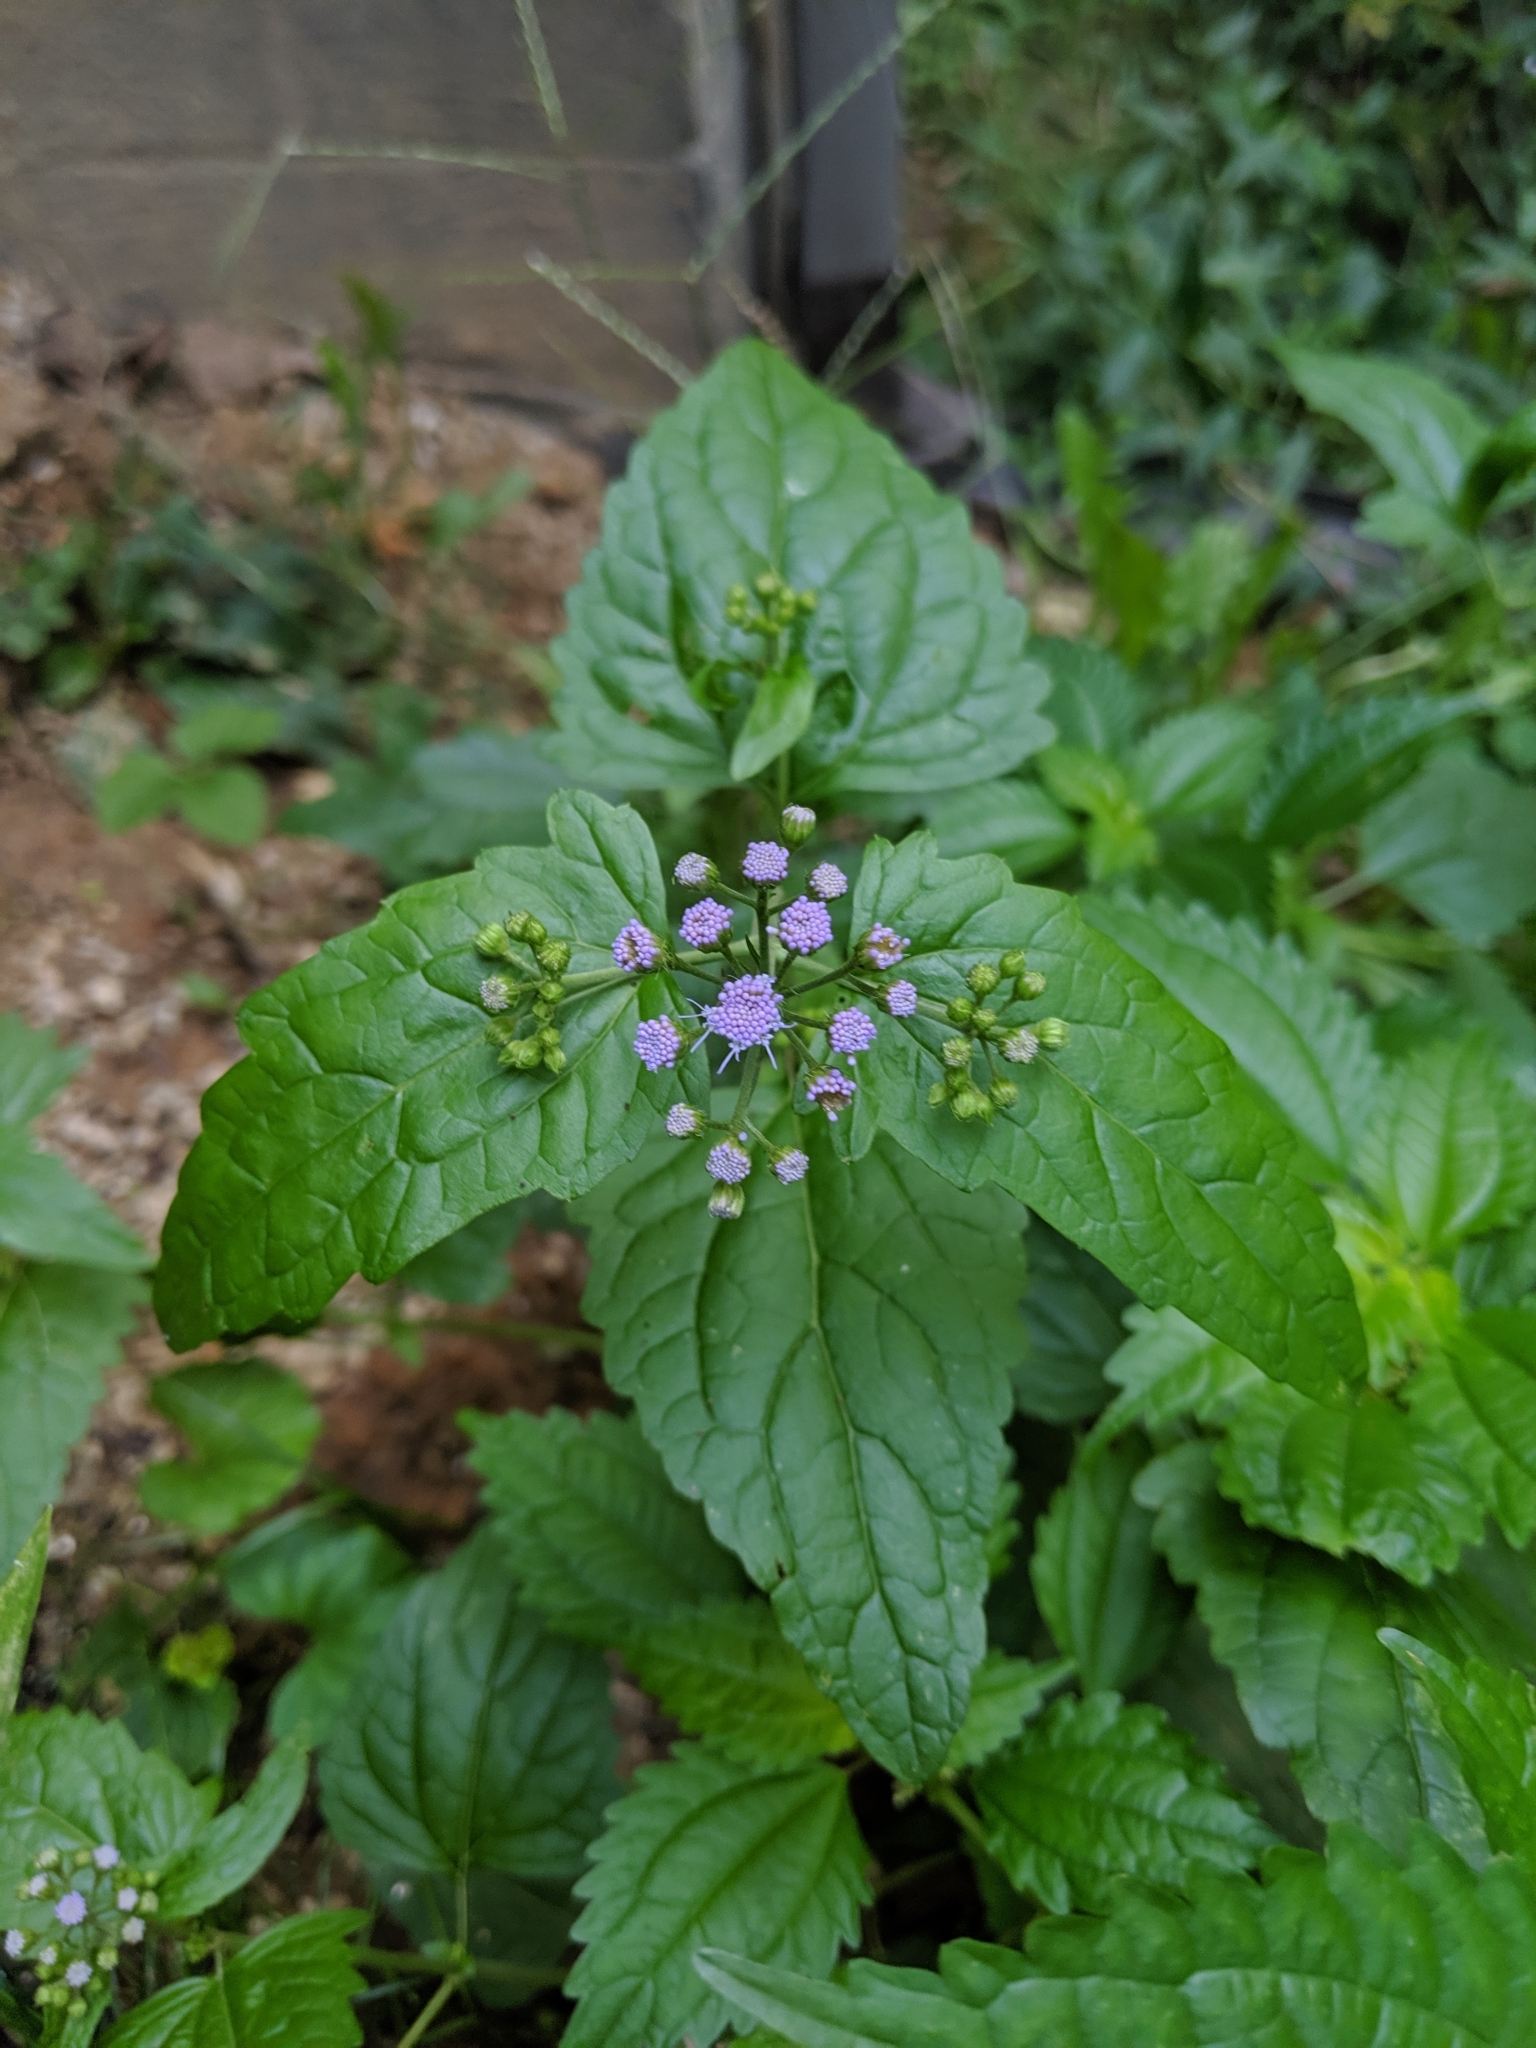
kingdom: Plantae
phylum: Tracheophyta
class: Magnoliopsida
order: Asterales
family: Asteraceae
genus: Conoclinium
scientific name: Conoclinium coelestinum
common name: Blue mistflower
